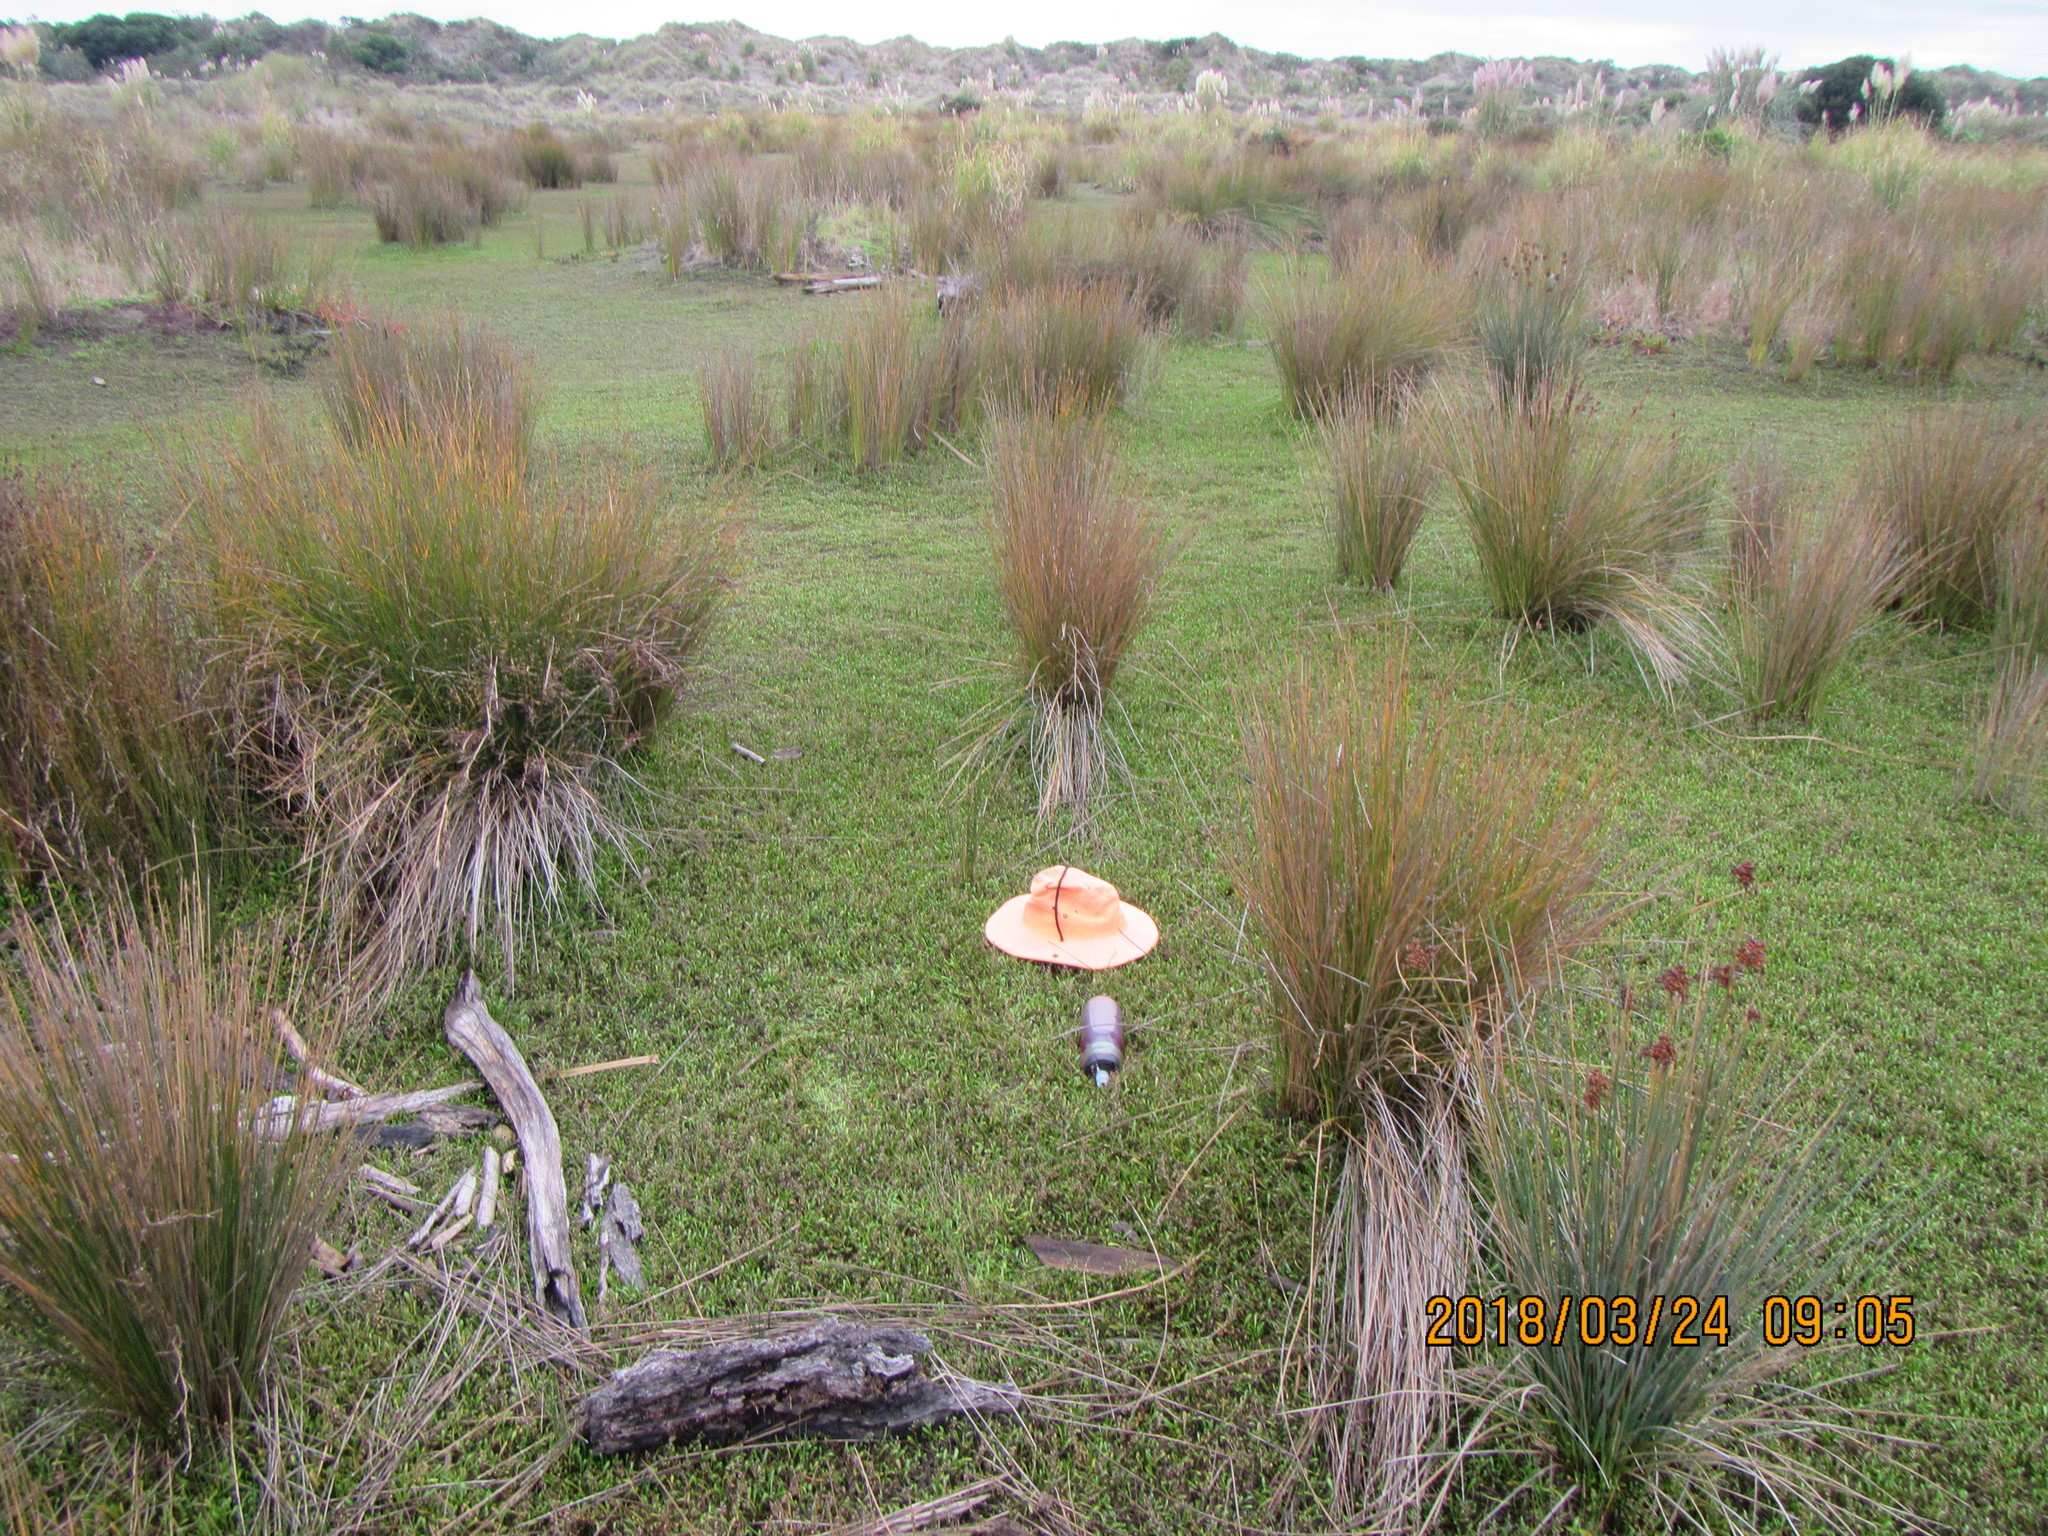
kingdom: Plantae
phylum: Tracheophyta
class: Magnoliopsida
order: Asterales
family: Goodeniaceae
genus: Goodenia
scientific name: Goodenia radicans
